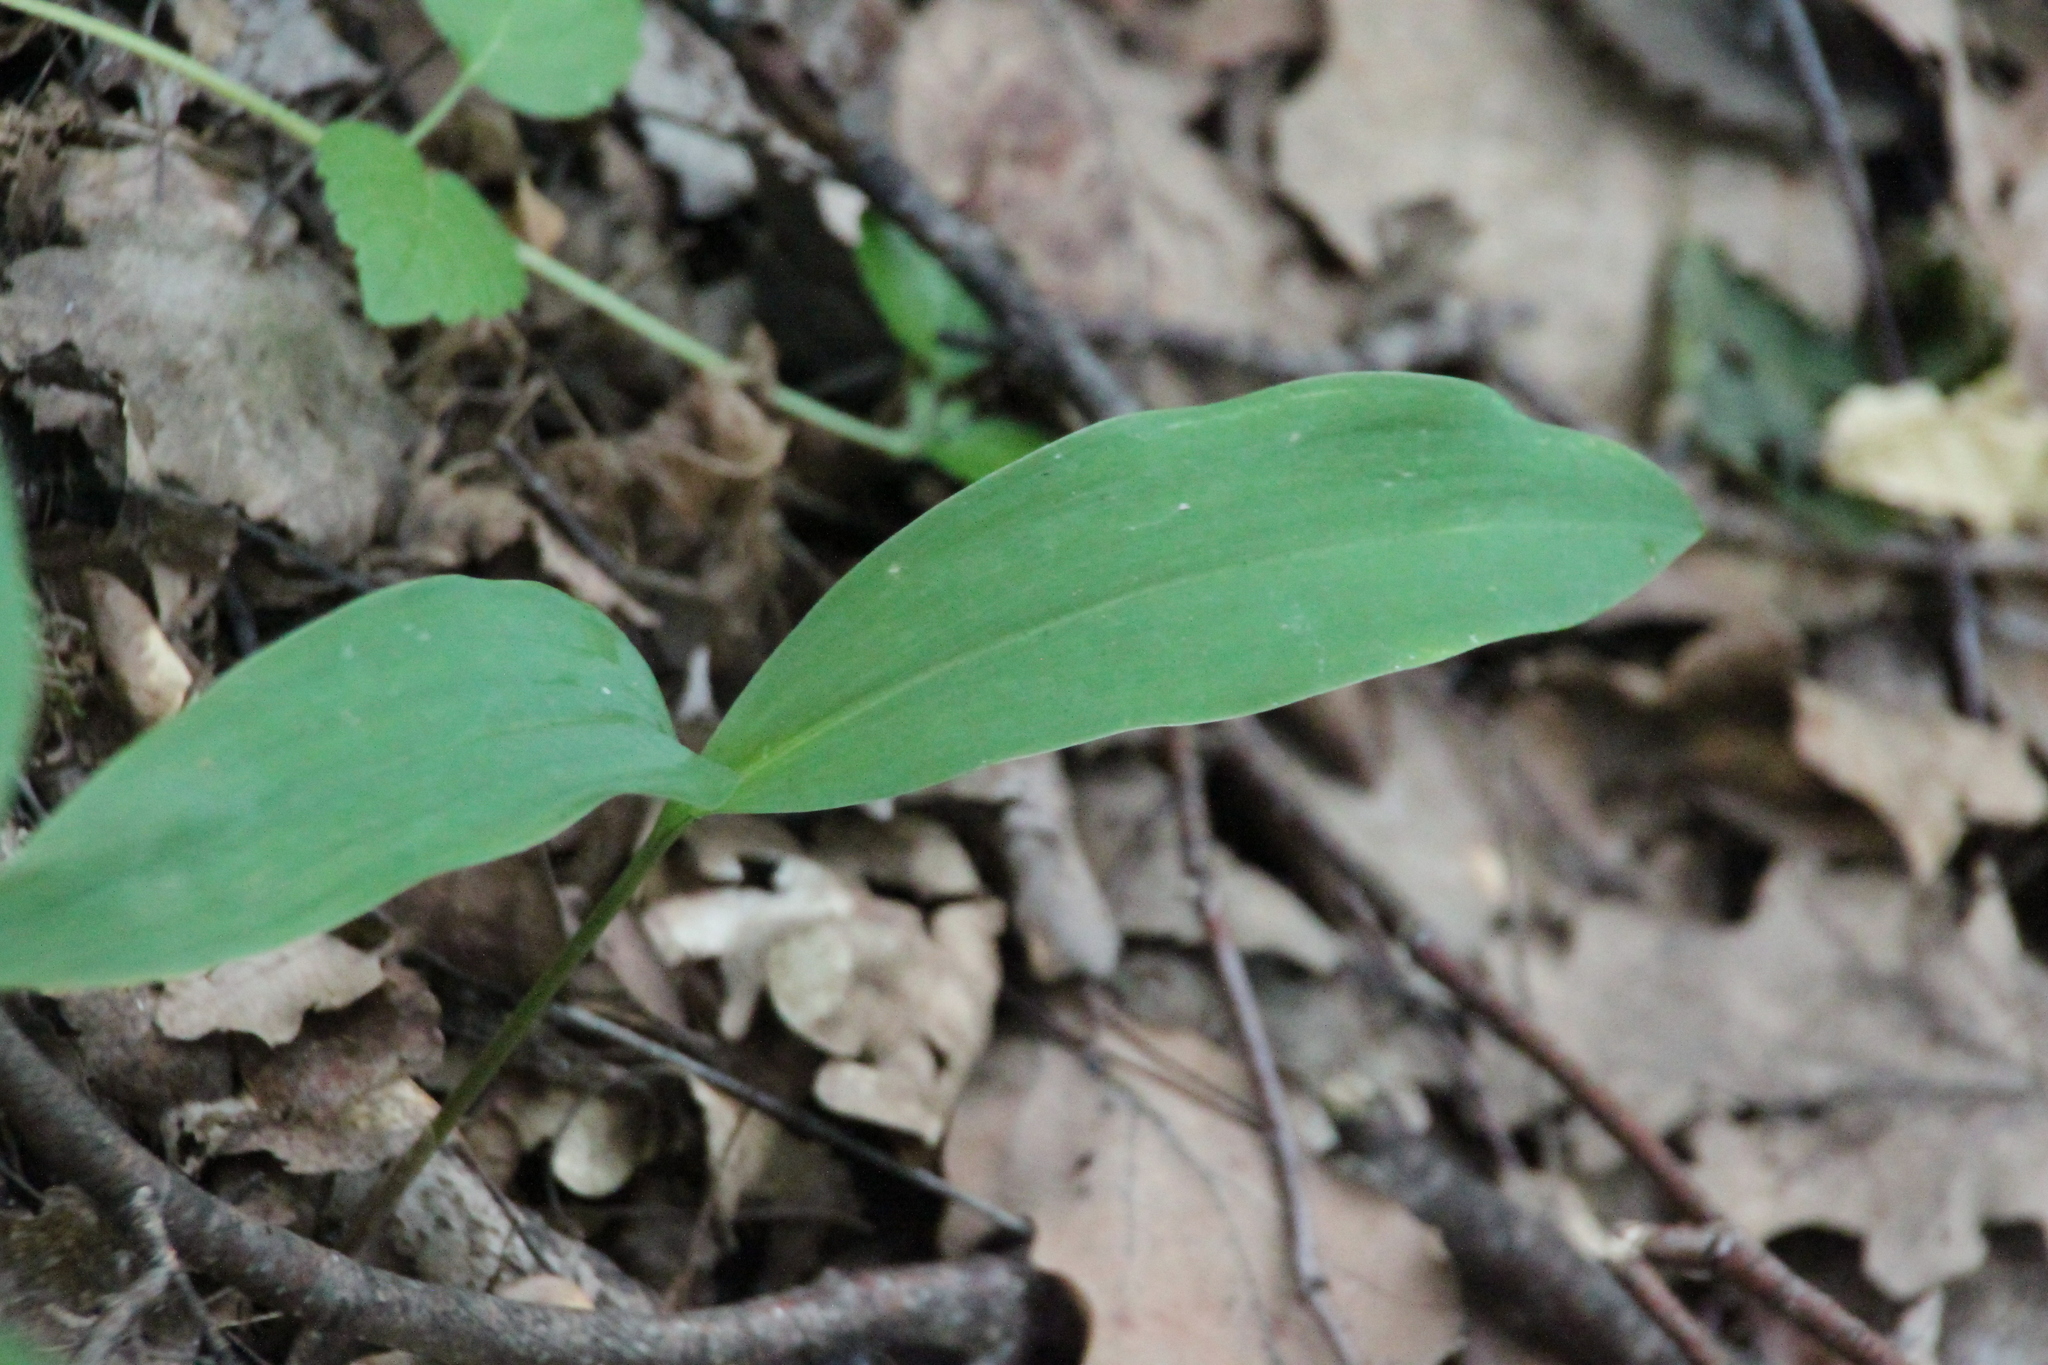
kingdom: Plantae
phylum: Tracheophyta
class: Liliopsida
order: Asparagales
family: Asparagaceae
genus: Convallaria
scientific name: Convallaria majalis
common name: Lily-of-the-valley
